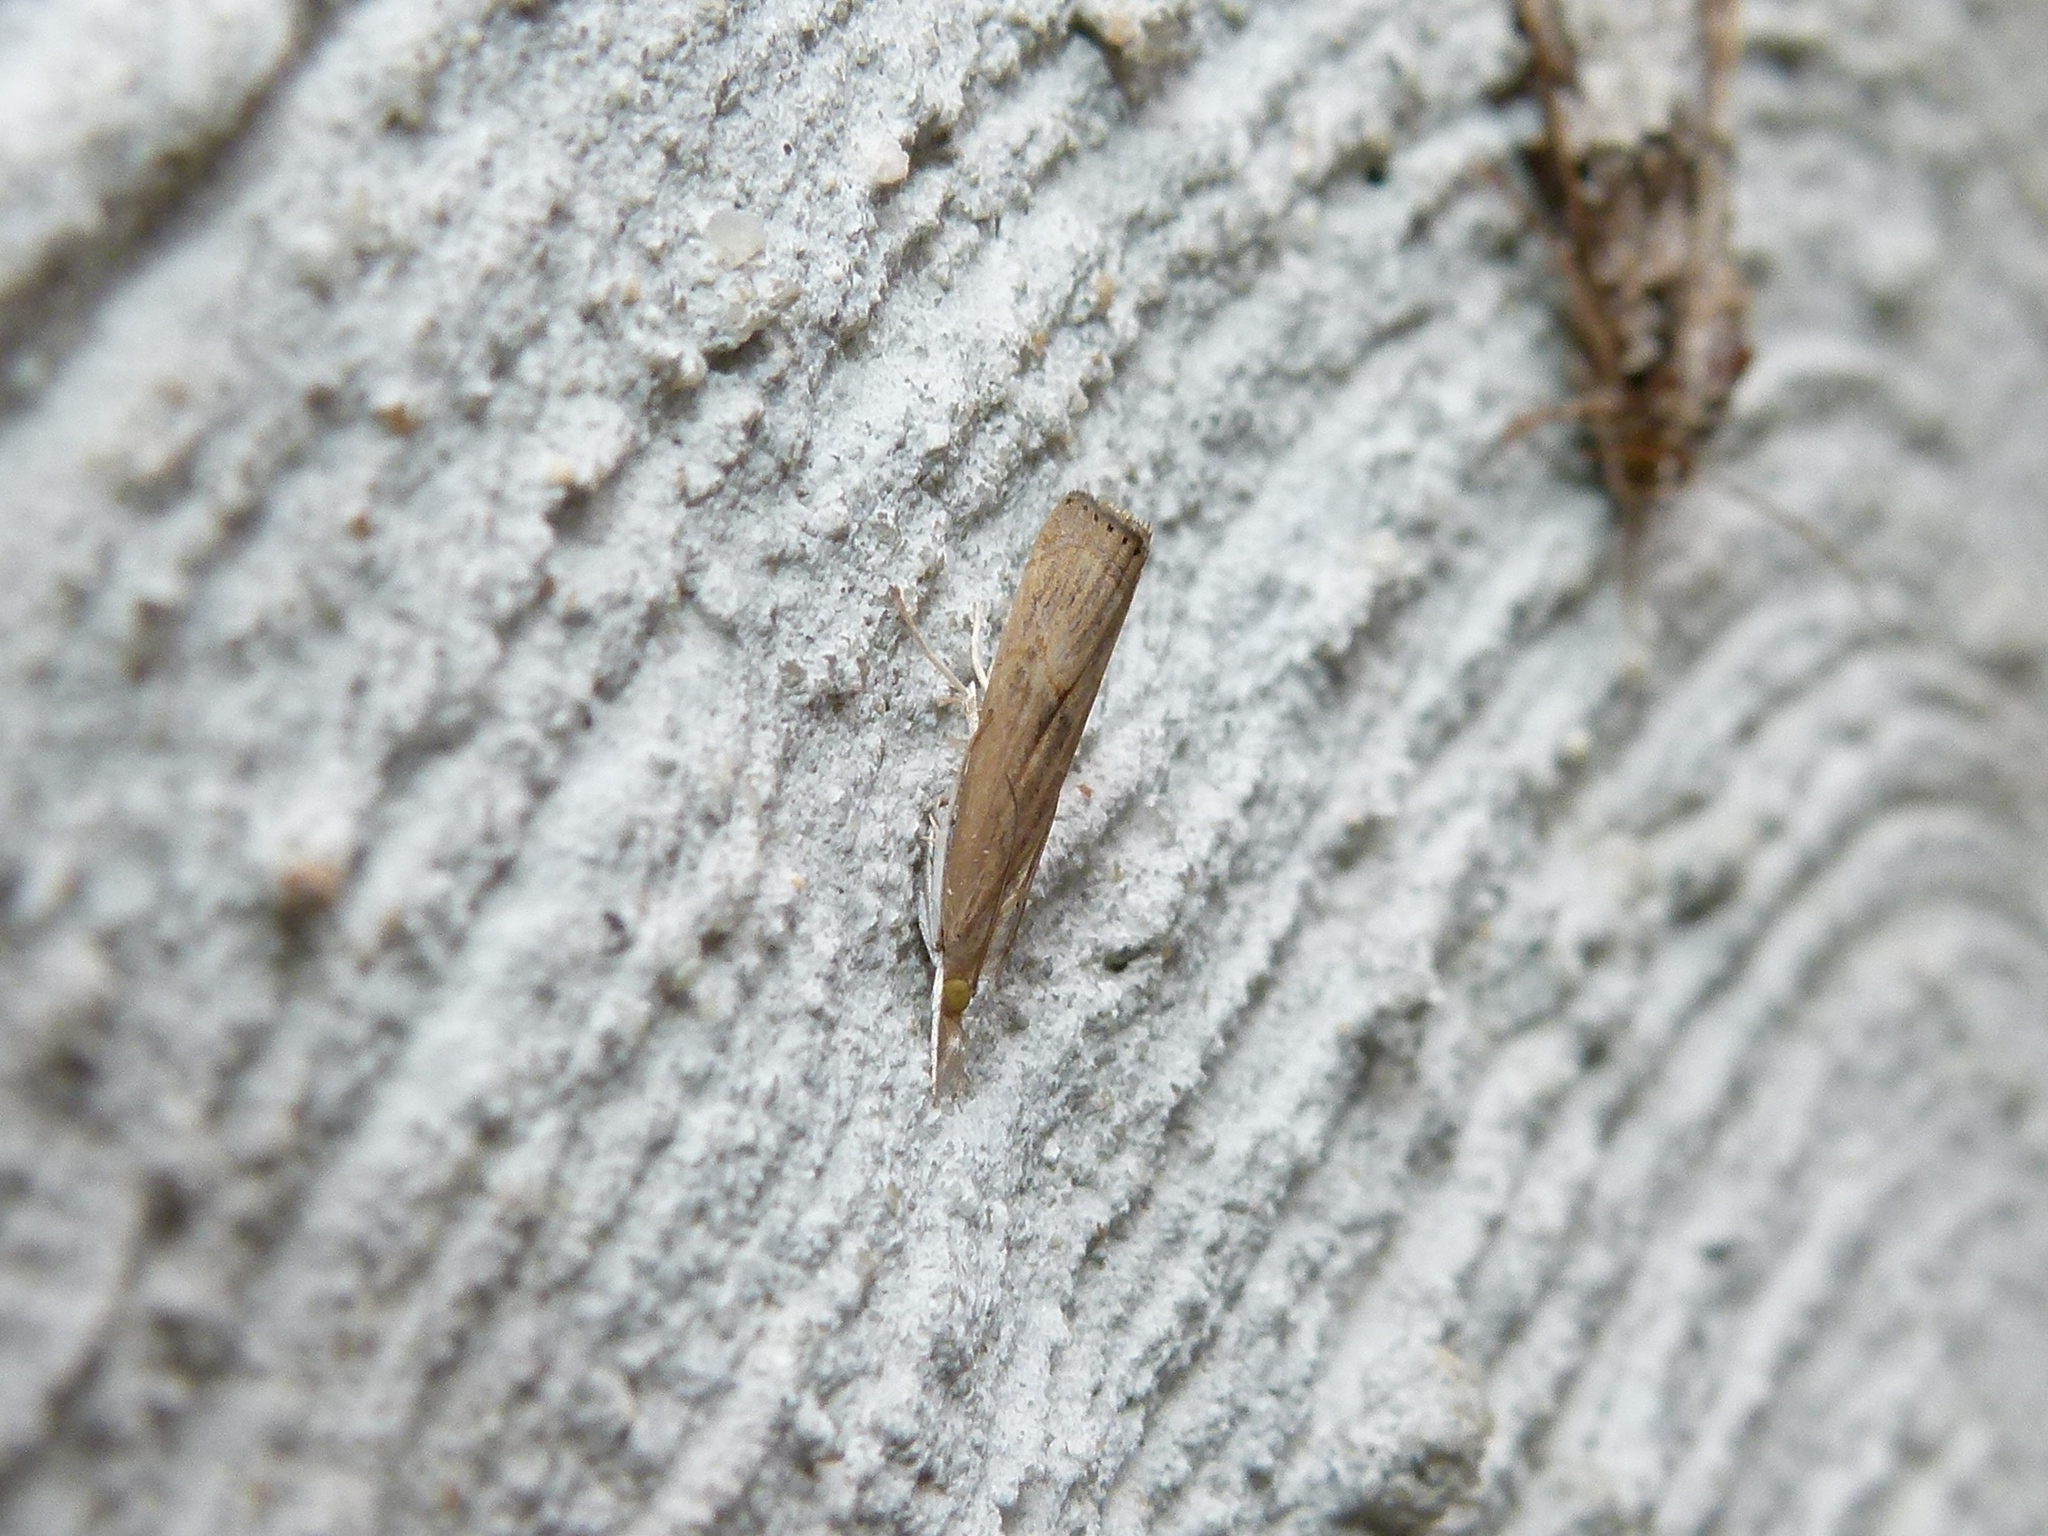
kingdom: Animalia
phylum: Arthropoda
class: Insecta
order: Lepidoptera
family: Crambidae
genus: Parapediasia
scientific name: Parapediasia teterellus
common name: Bluegrass webworm moth
